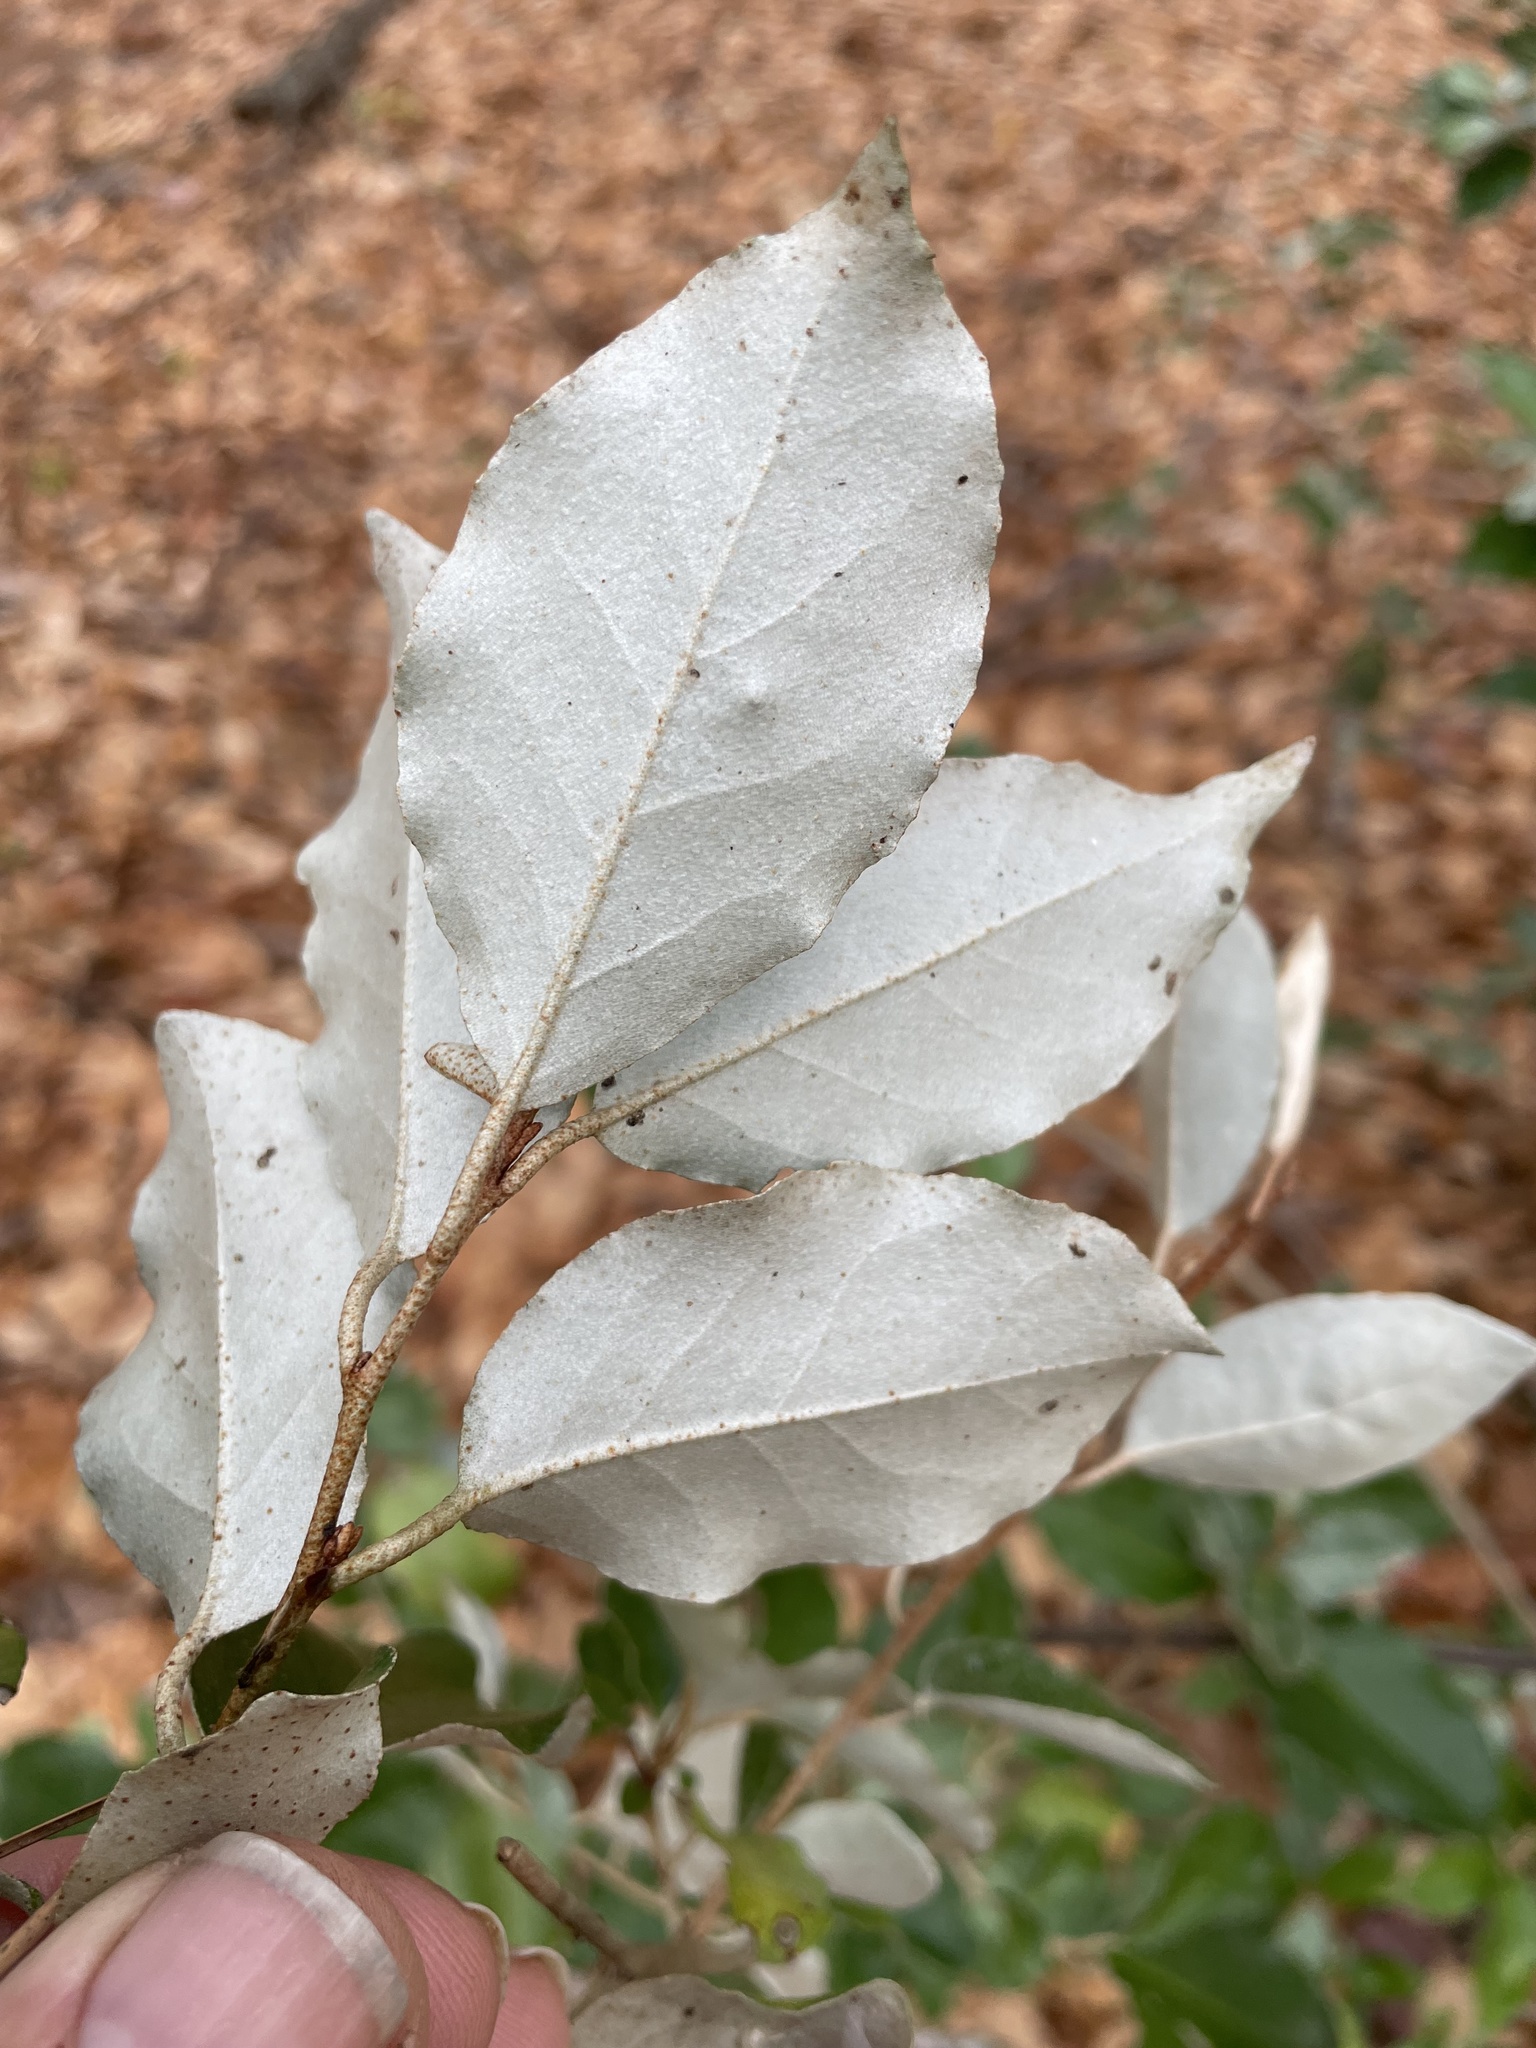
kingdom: Plantae
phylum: Tracheophyta
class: Magnoliopsida
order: Rosales
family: Elaeagnaceae
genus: Elaeagnus
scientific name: Elaeagnus pungens
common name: Spiny oleaster
